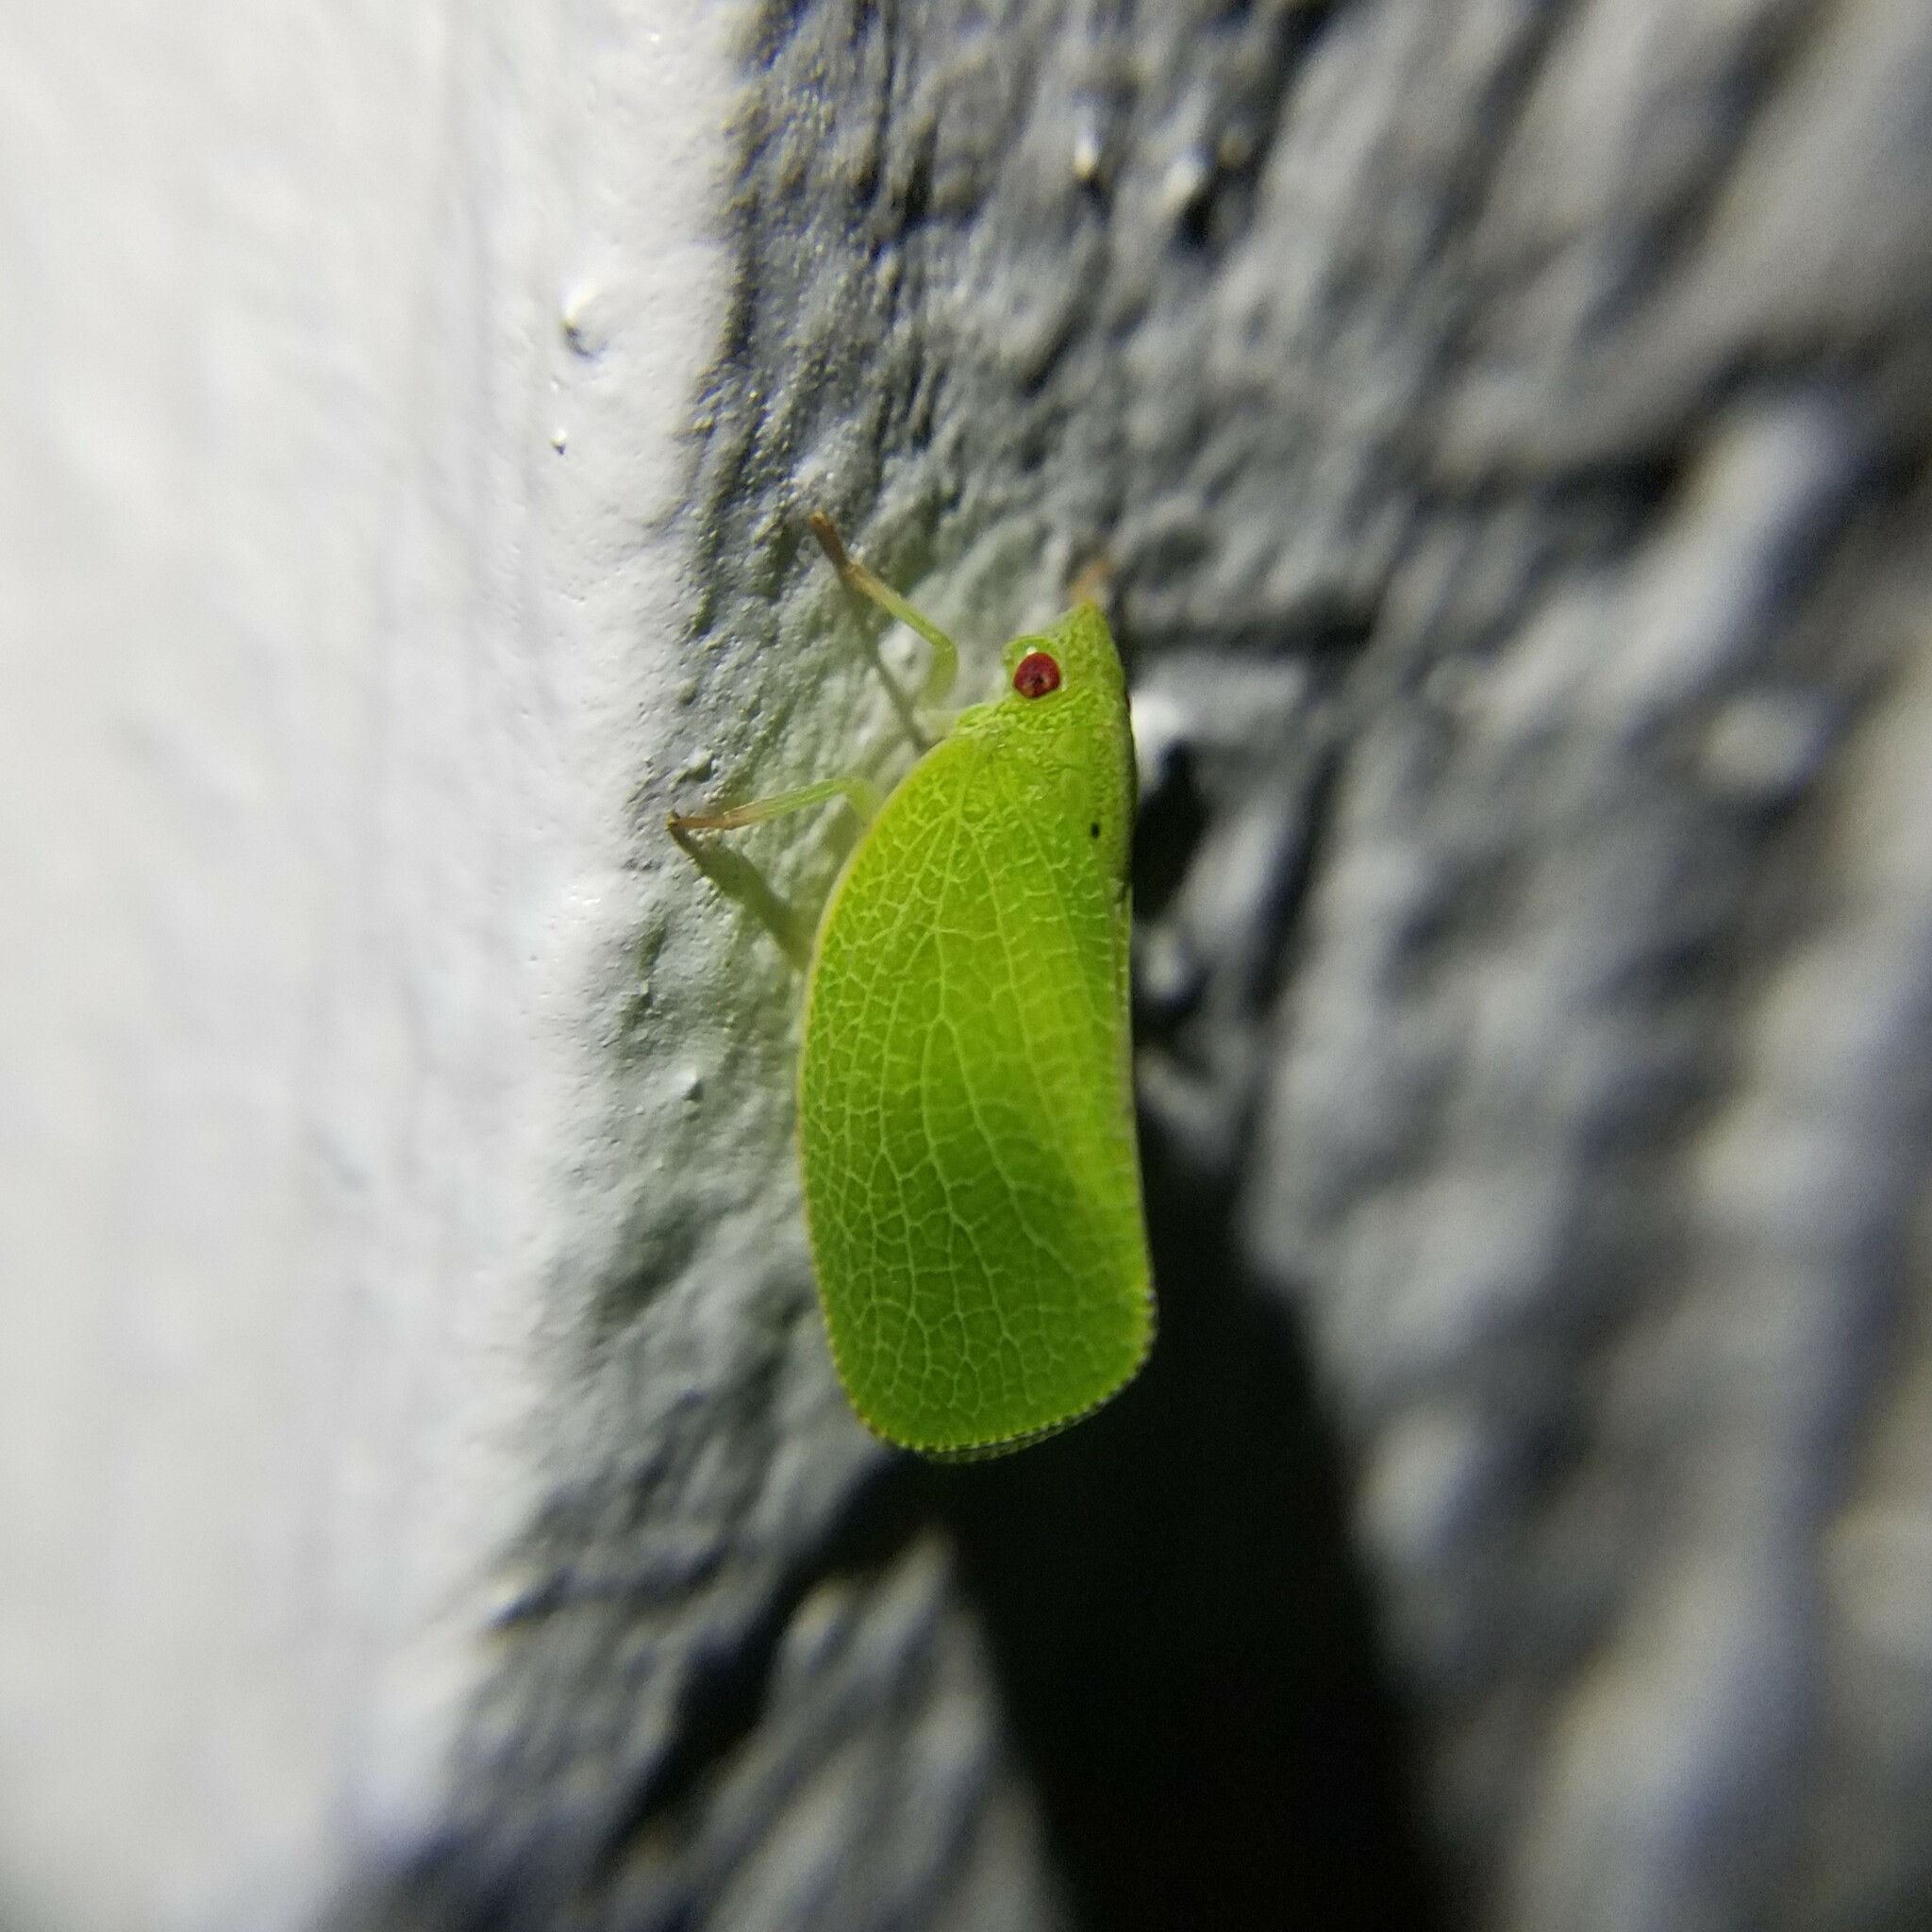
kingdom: Animalia
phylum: Arthropoda
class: Insecta
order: Hemiptera
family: Acanaloniidae
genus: Acanalonia
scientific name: Acanalonia conica
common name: Green cone-headed planthopper
